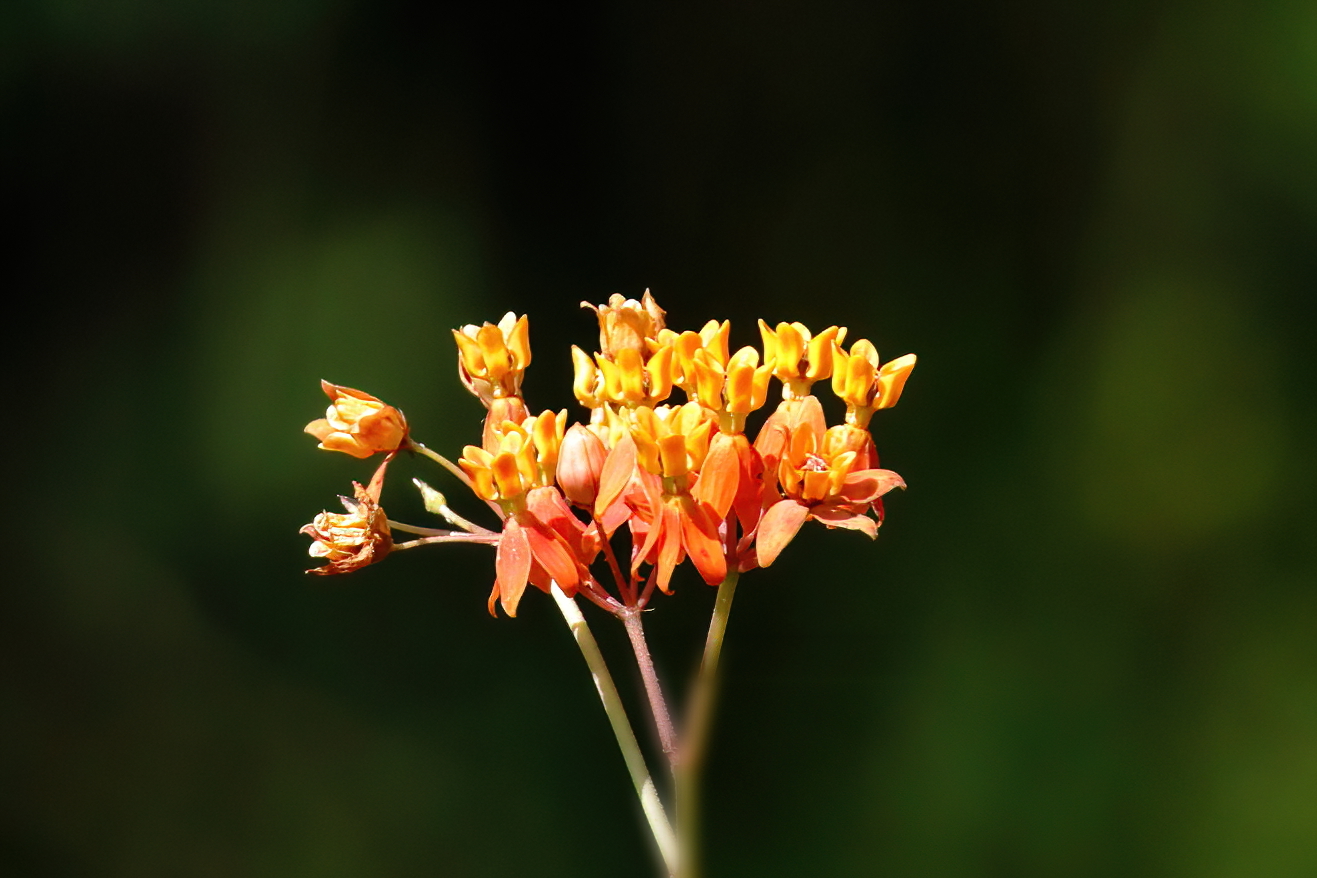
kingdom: Plantae
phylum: Tracheophyta
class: Magnoliopsida
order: Gentianales
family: Apocynaceae
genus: Asclepias
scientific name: Asclepias lanceolata
